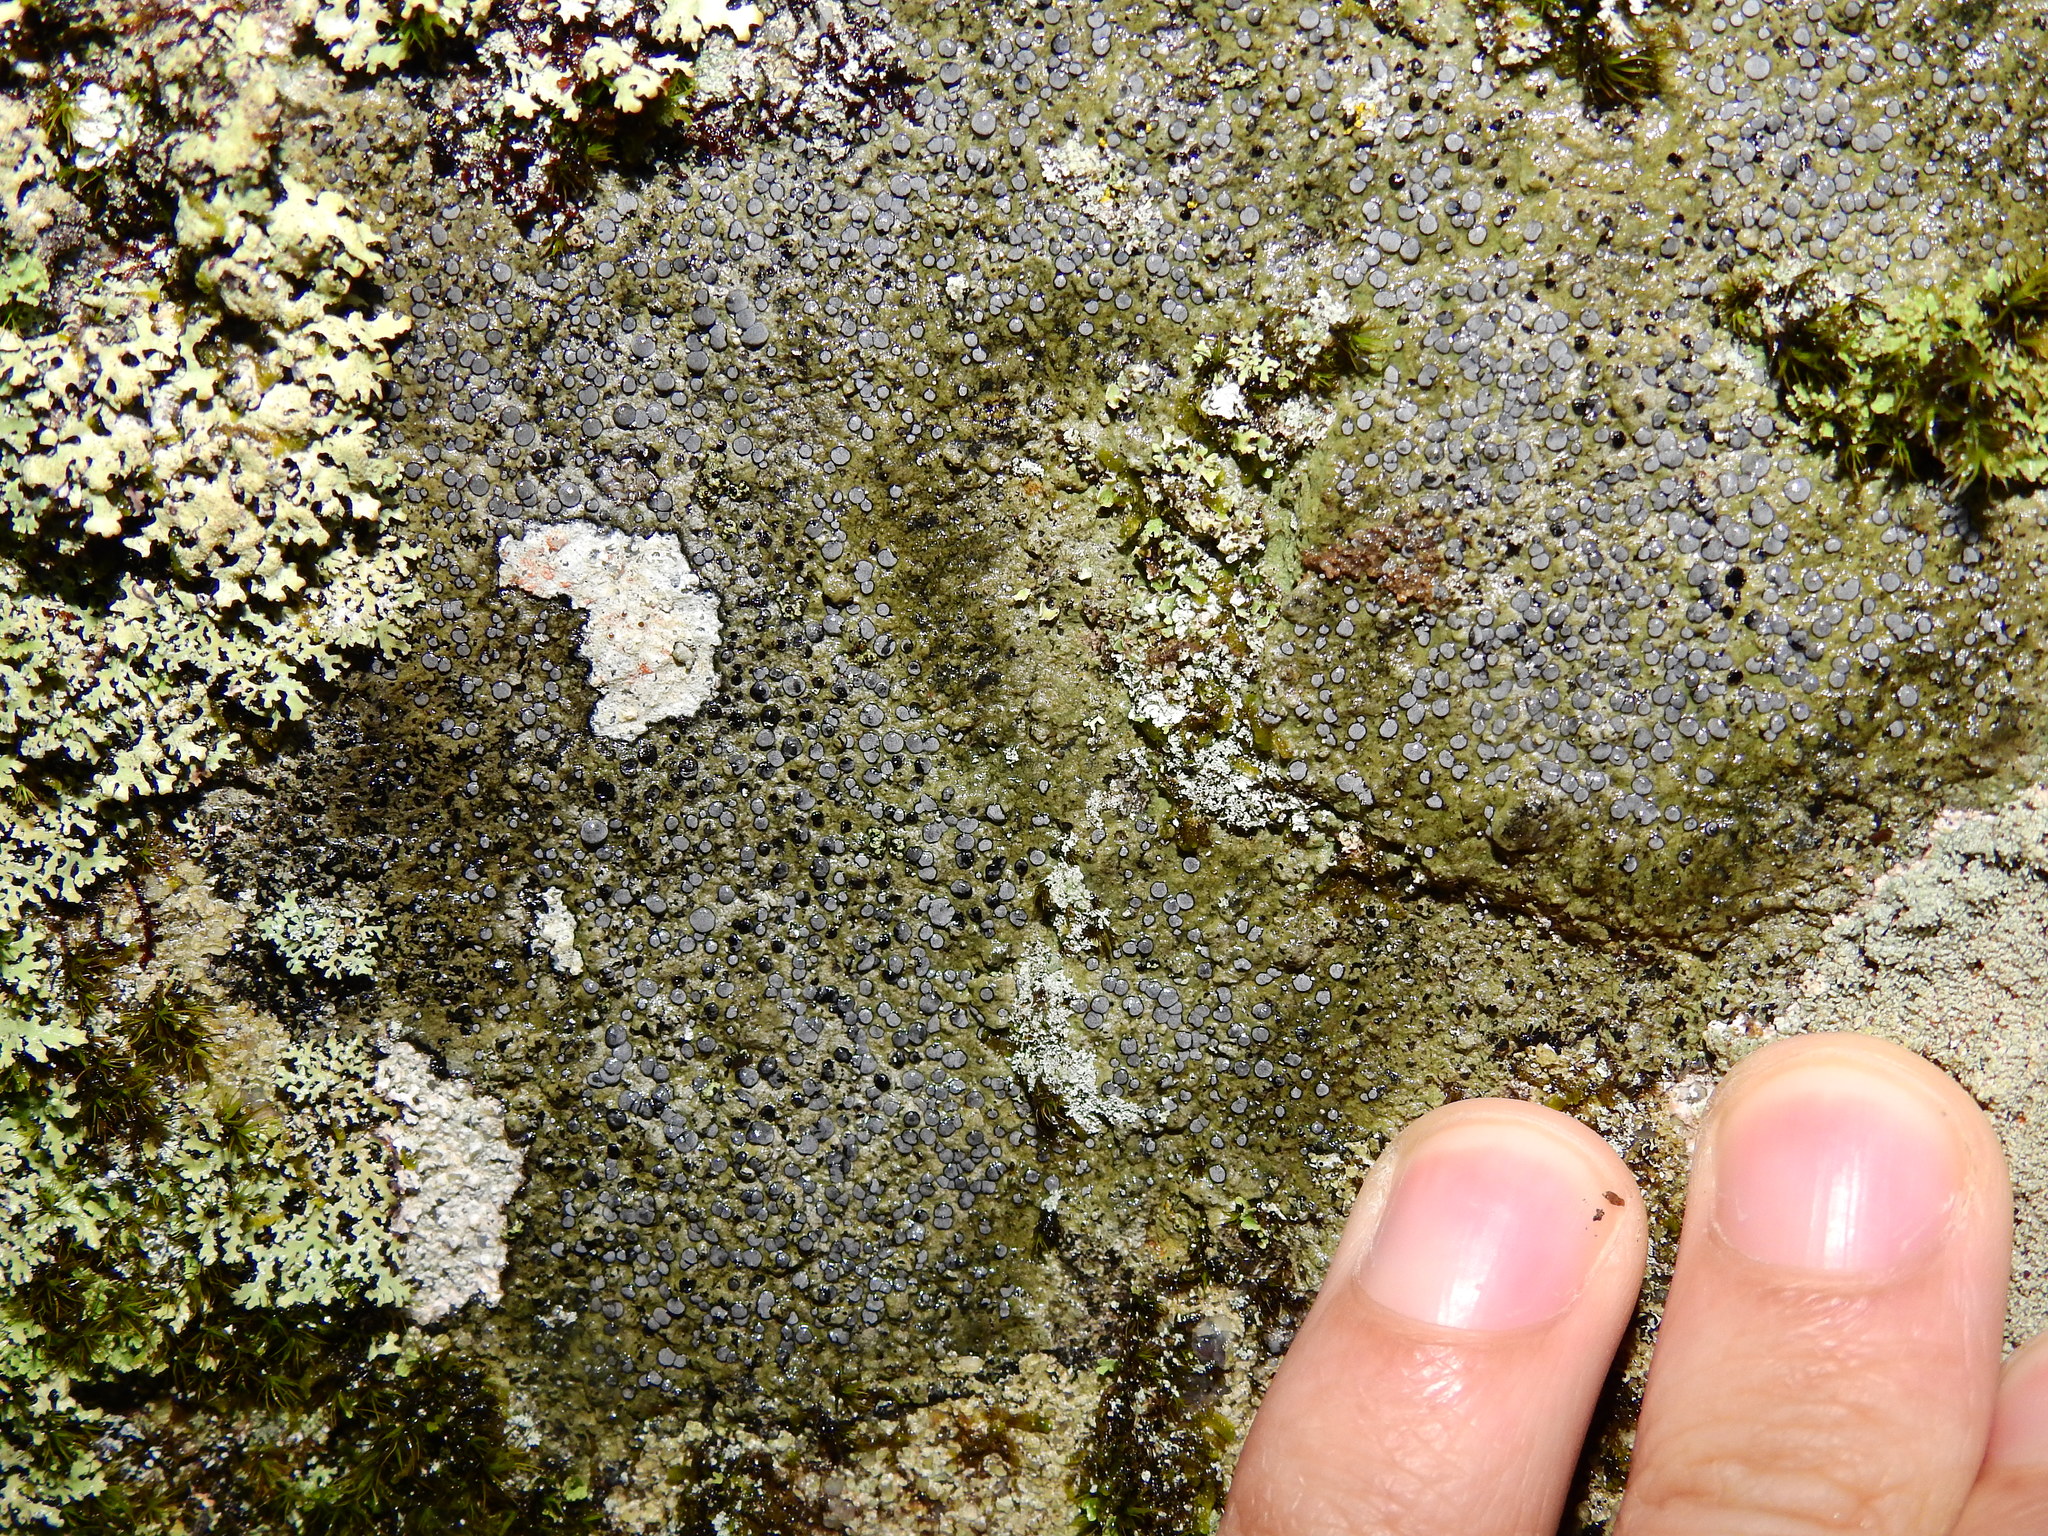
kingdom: Fungi
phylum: Ascomycota
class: Lecanoromycetes
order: Lecideales
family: Lecideaceae
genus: Porpidia
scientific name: Porpidia albocaerulescens
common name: Smokey-eyed boulder lichen
